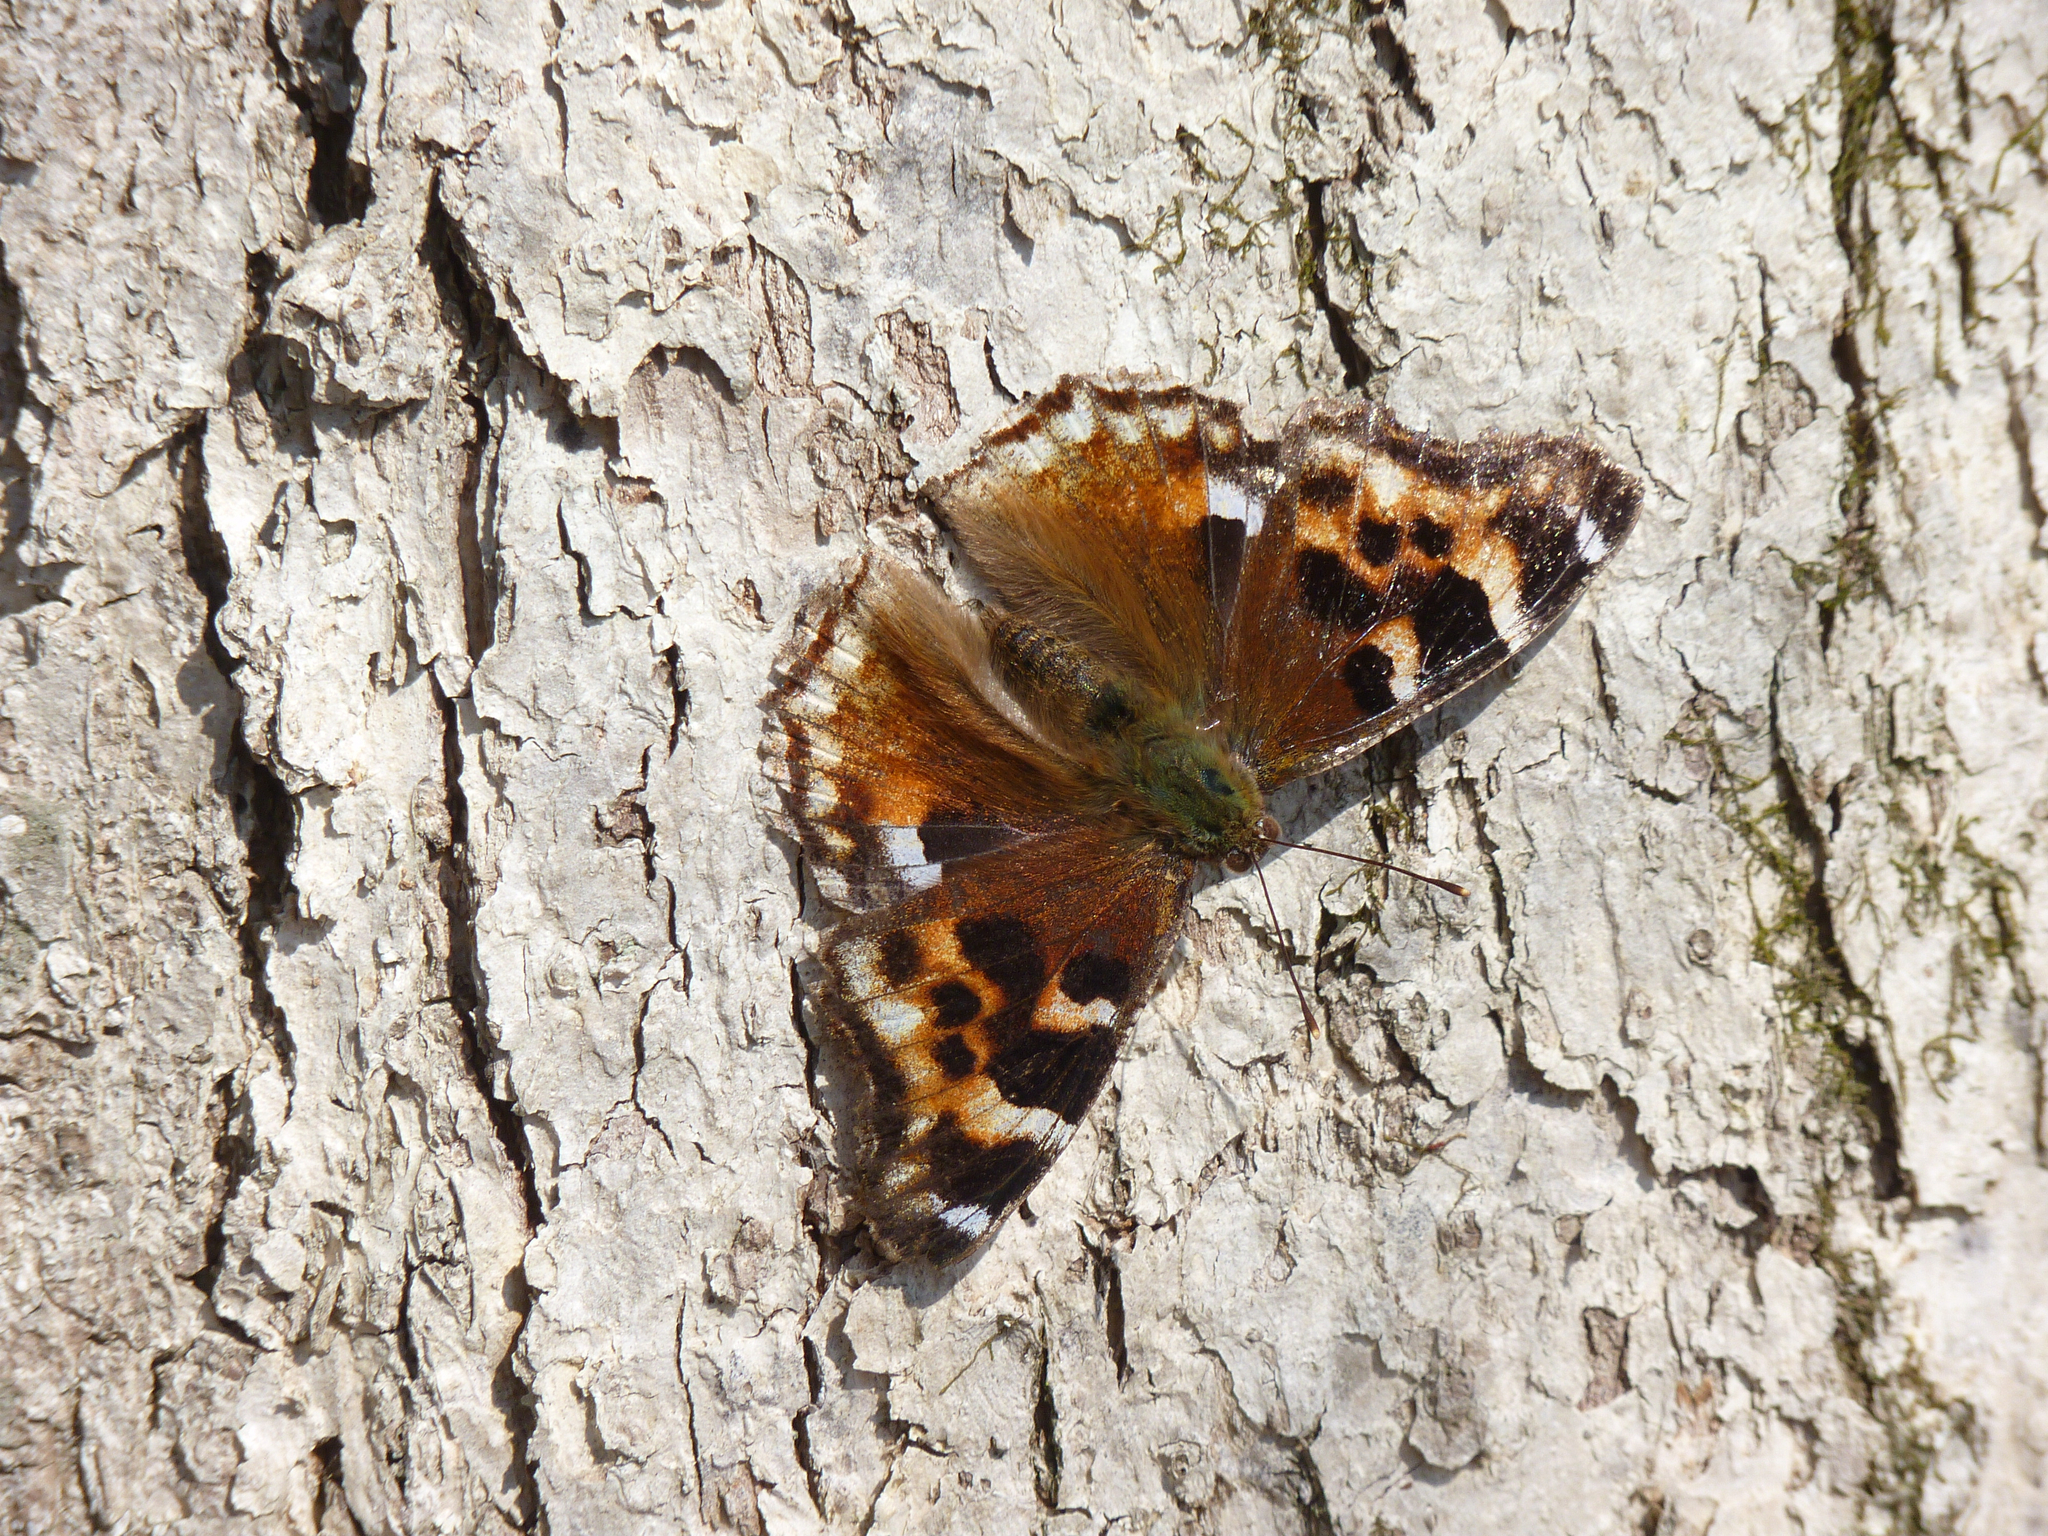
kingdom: Animalia
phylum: Arthropoda
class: Insecta
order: Lepidoptera
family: Nymphalidae
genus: Polygonia
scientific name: Polygonia vaualbum
